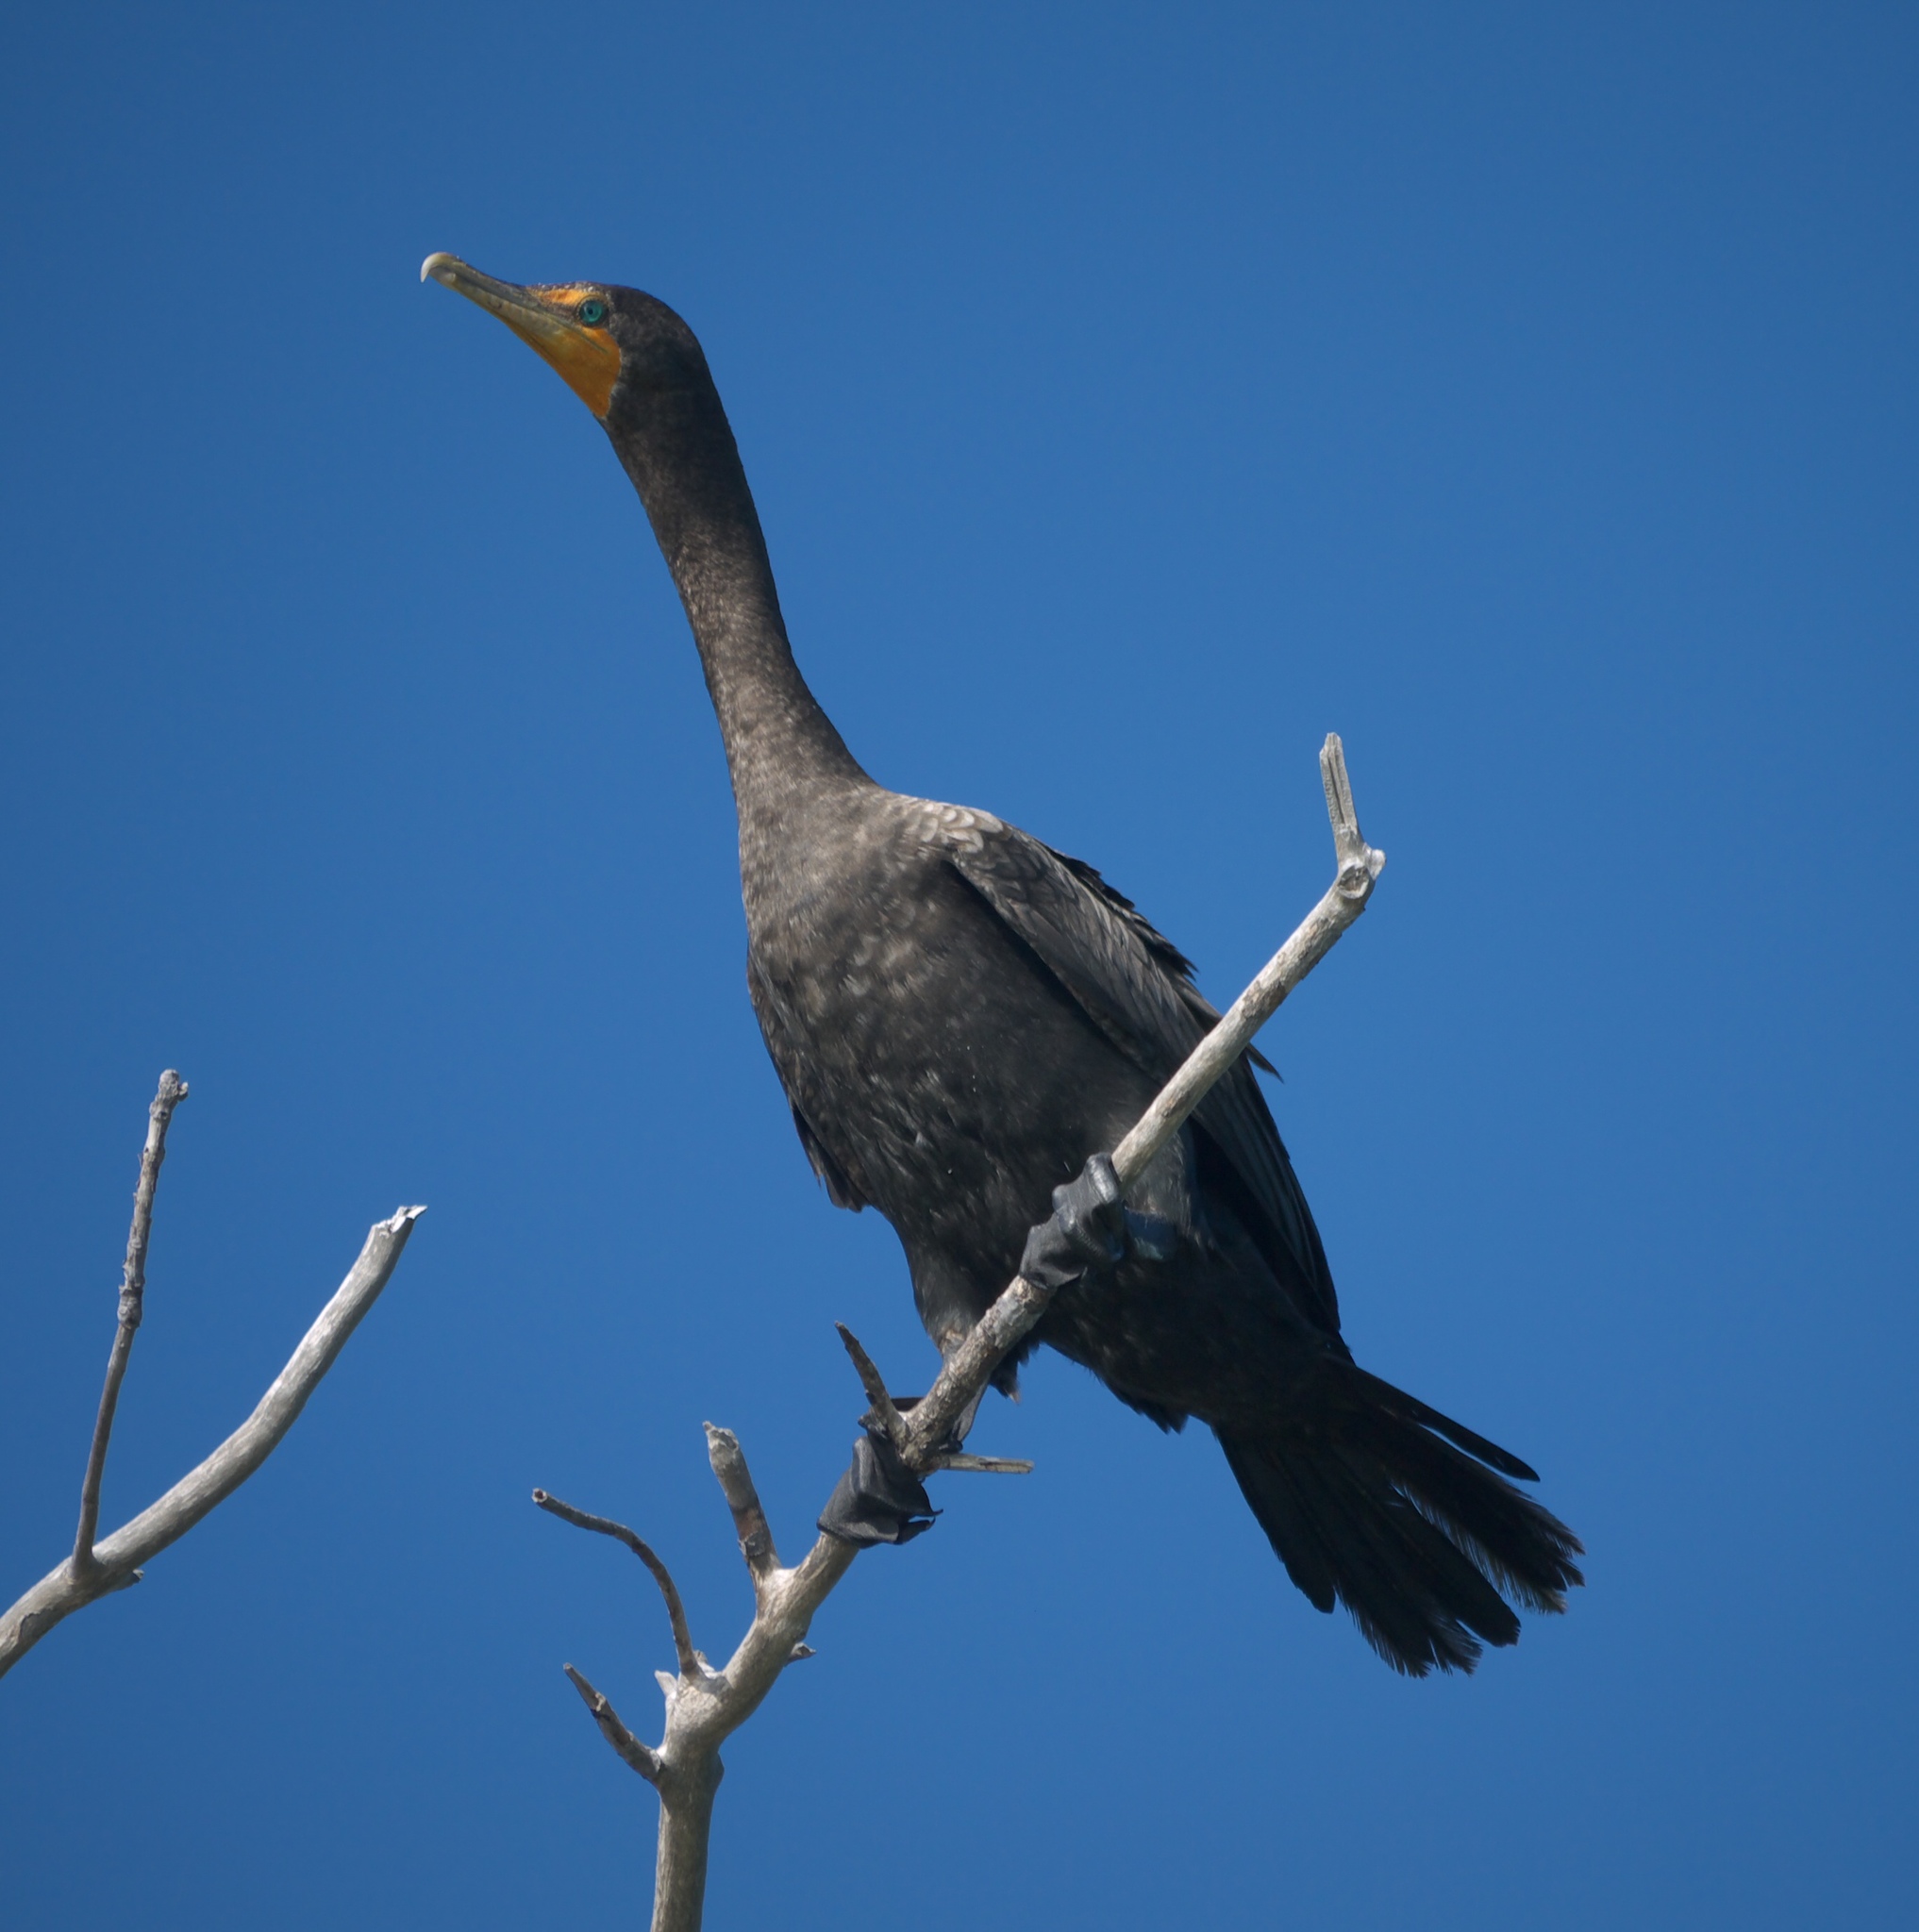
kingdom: Animalia
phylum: Chordata
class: Aves
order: Suliformes
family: Phalacrocoracidae
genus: Phalacrocorax
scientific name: Phalacrocorax auritus
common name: Double-crested cormorant
